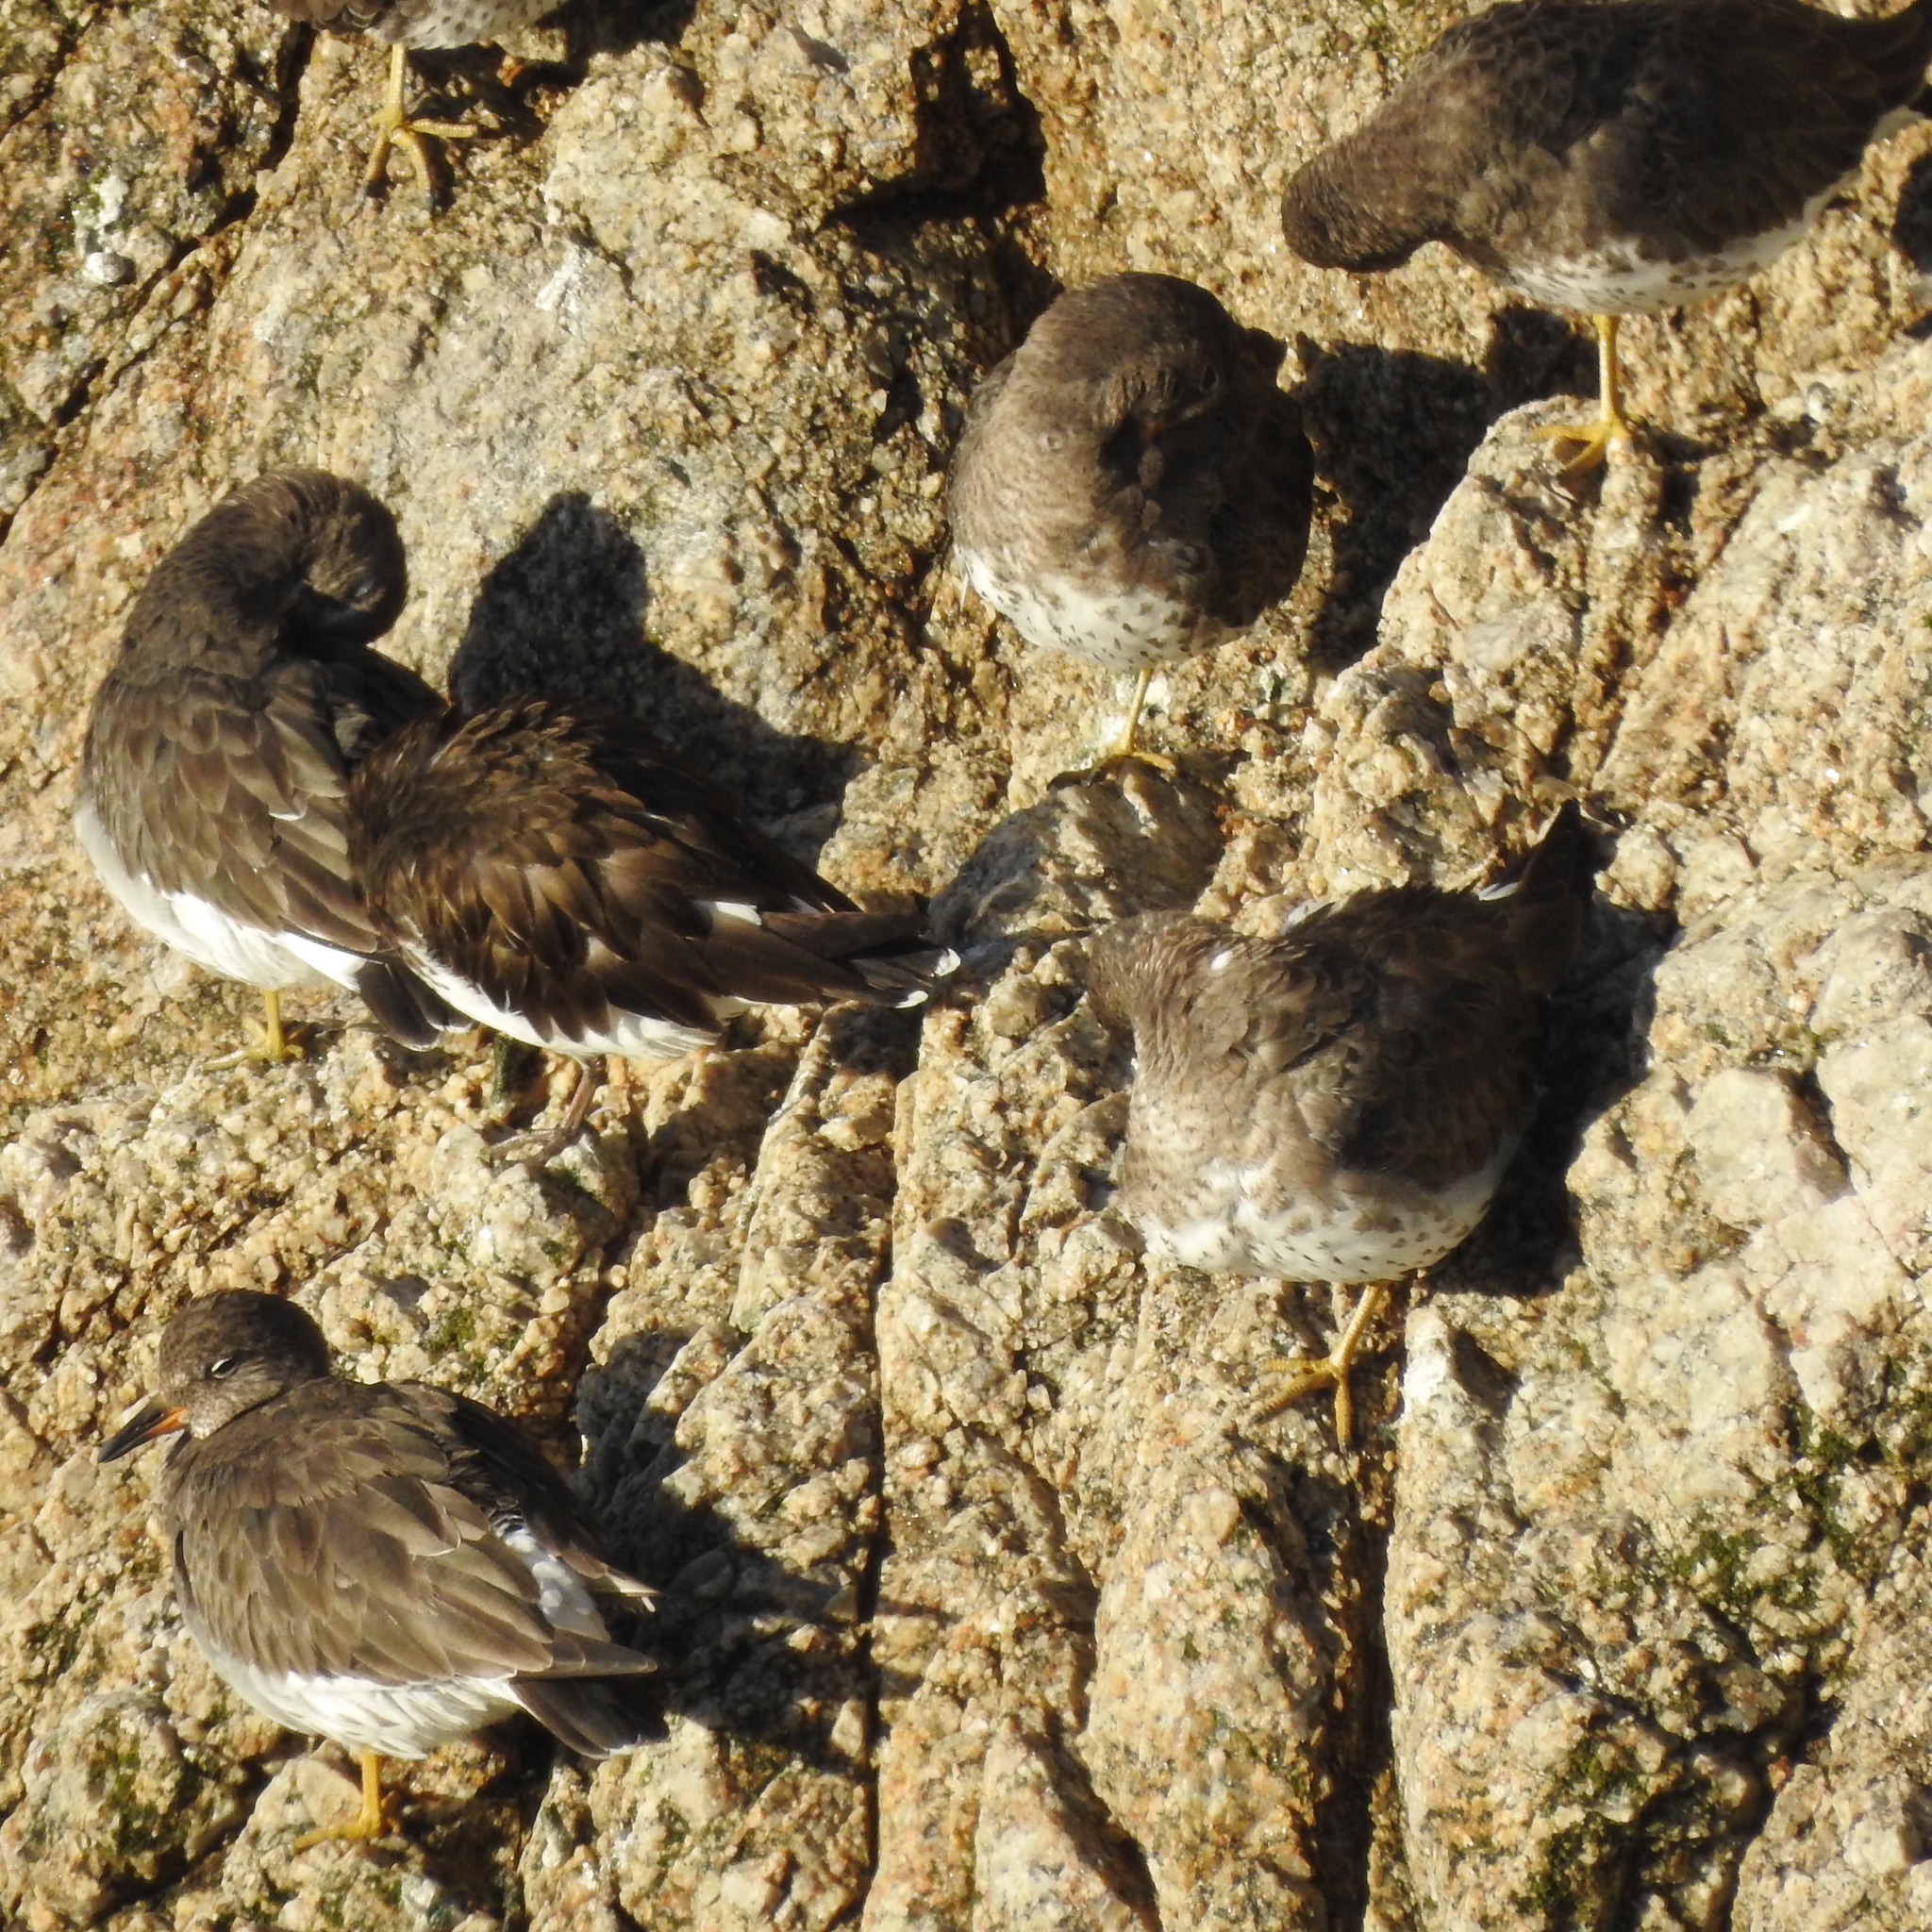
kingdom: Animalia
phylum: Chordata
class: Aves
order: Charadriiformes
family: Scolopacidae
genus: Arenaria
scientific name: Arenaria melanocephala
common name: Black turnstone
